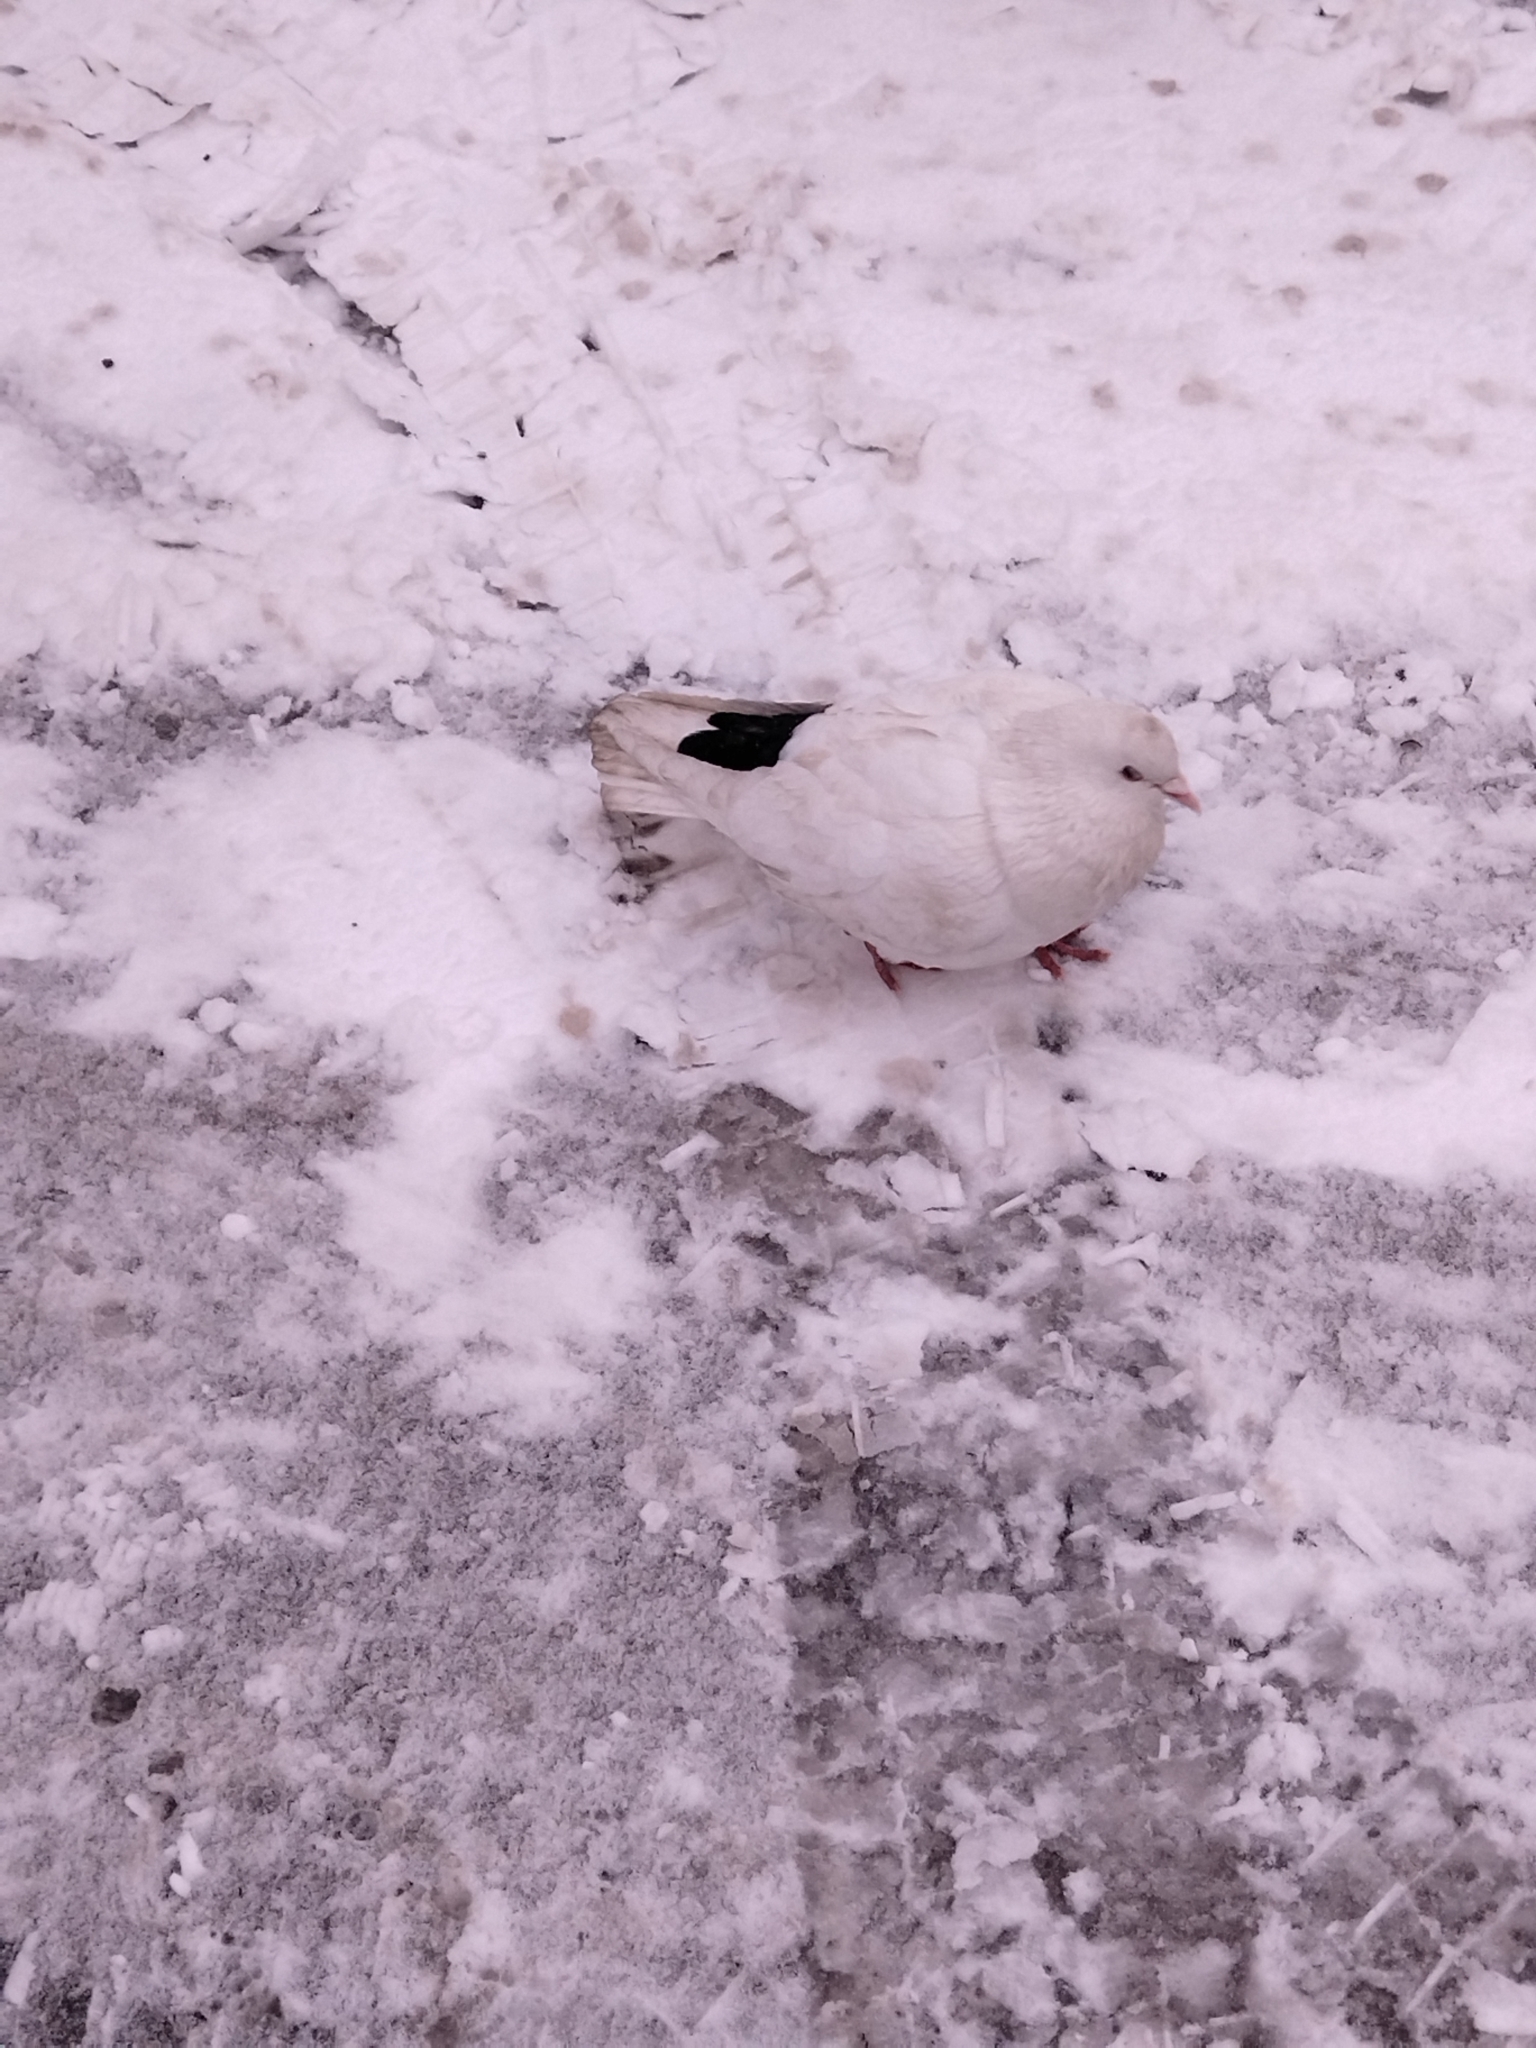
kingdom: Animalia
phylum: Chordata
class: Aves
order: Columbiformes
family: Columbidae
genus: Columba
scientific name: Columba livia
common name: Rock pigeon
